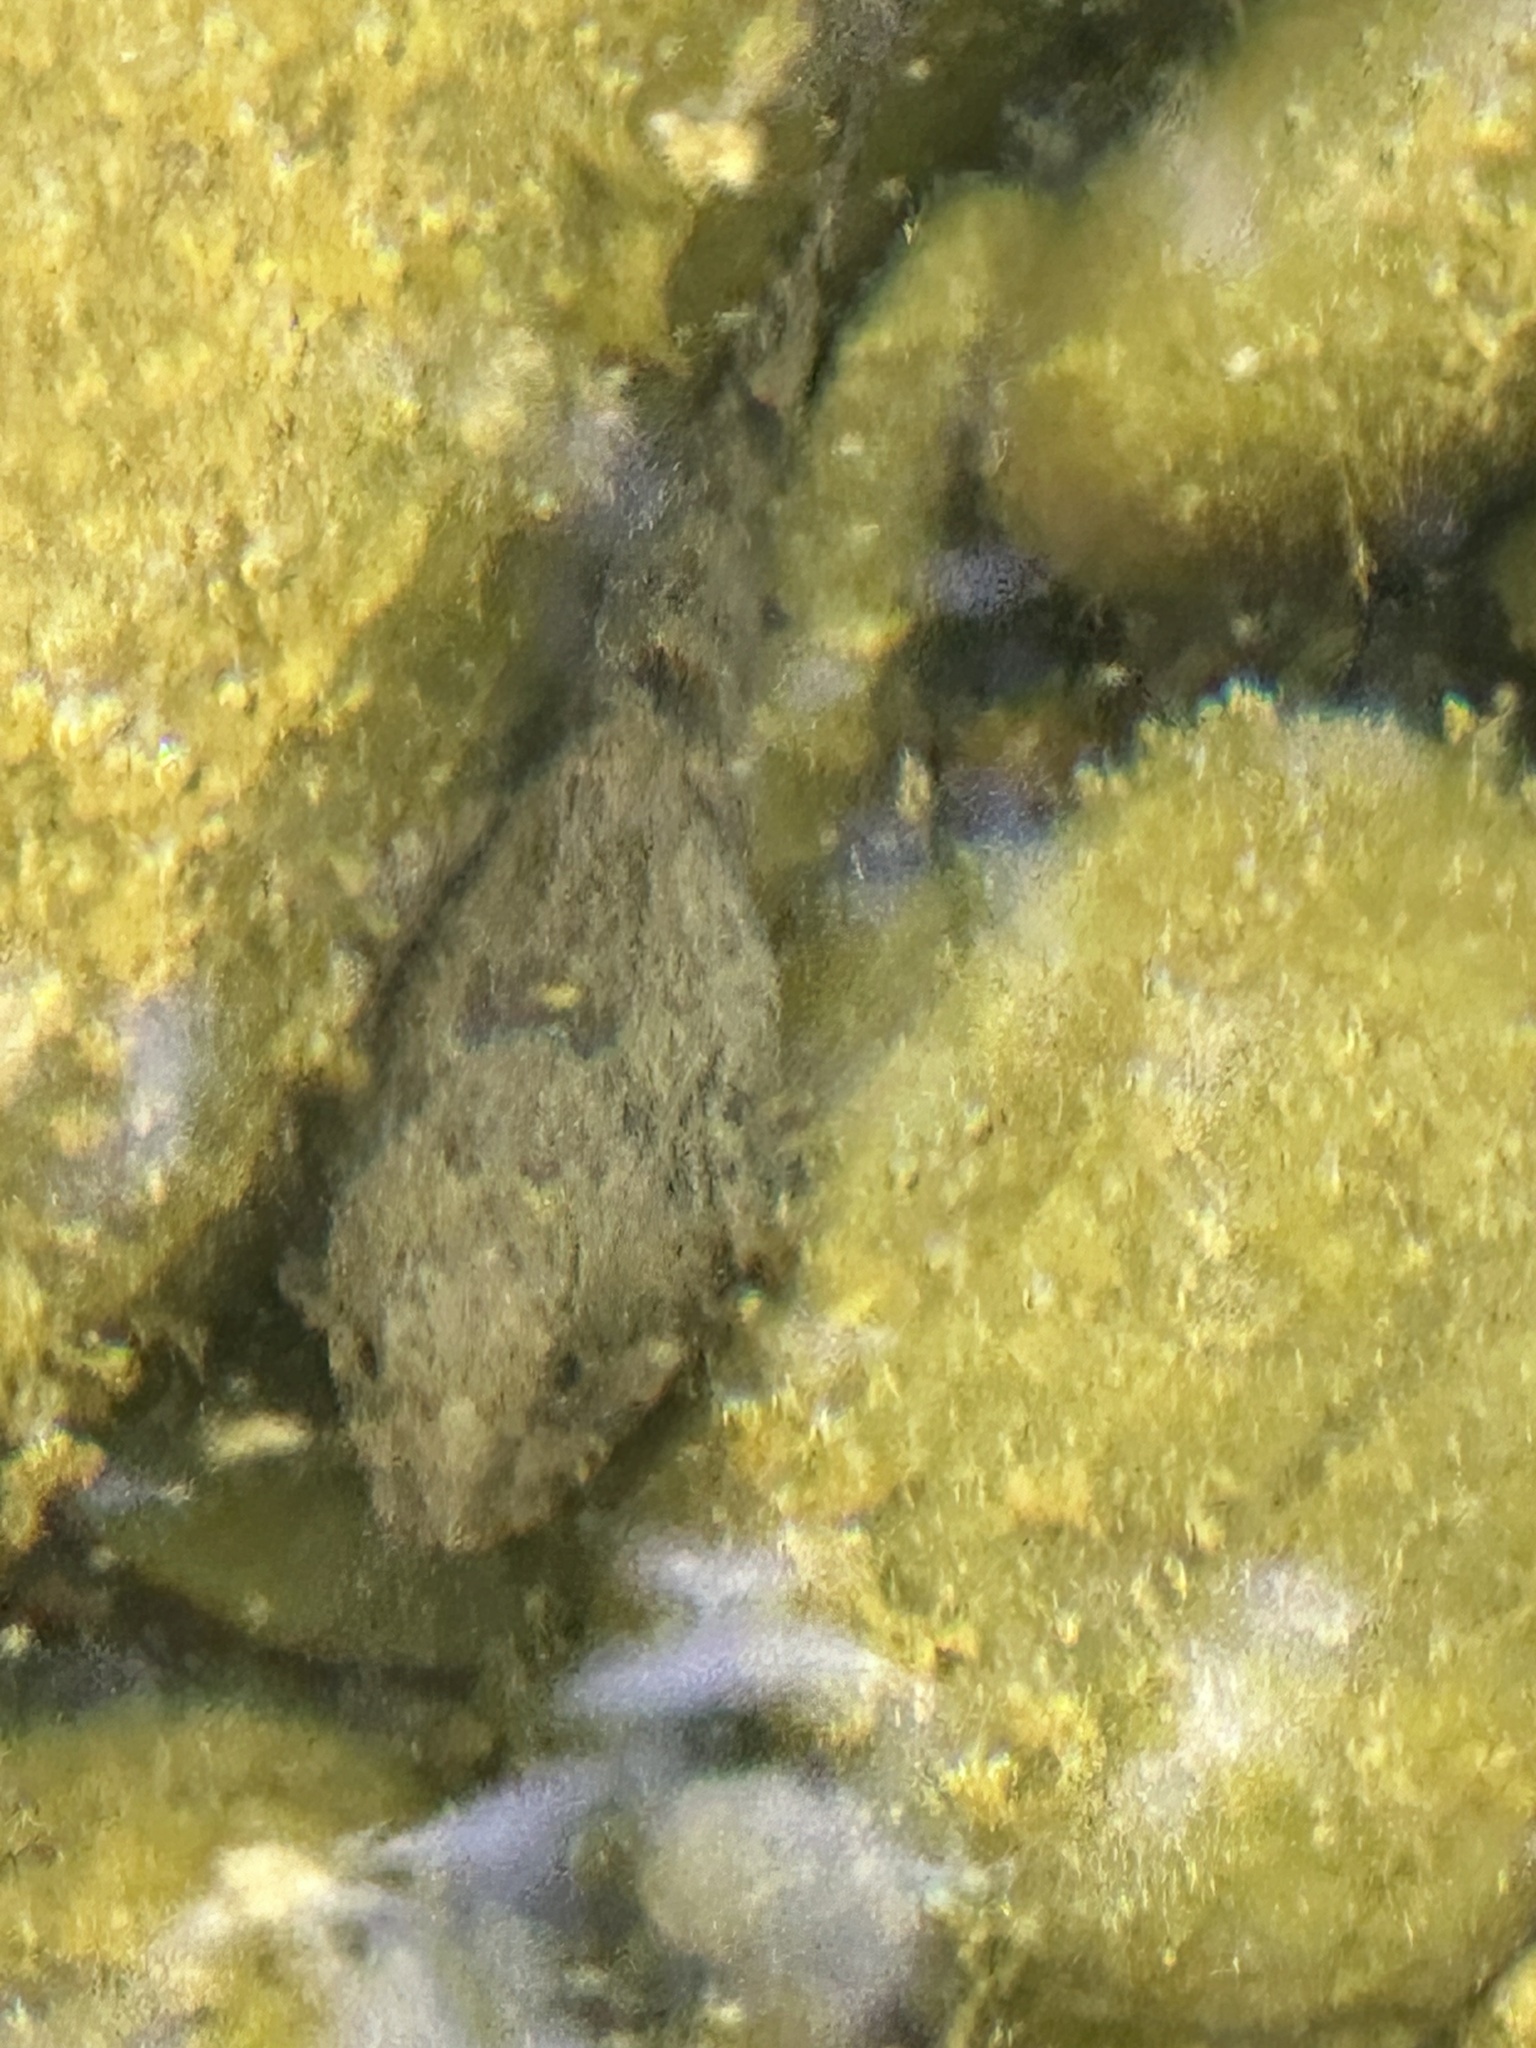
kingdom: Animalia
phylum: Chordata
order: Scorpaeniformes
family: Cottidae
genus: Cottus
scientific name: Cottus asper
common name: Prickly sculpin
